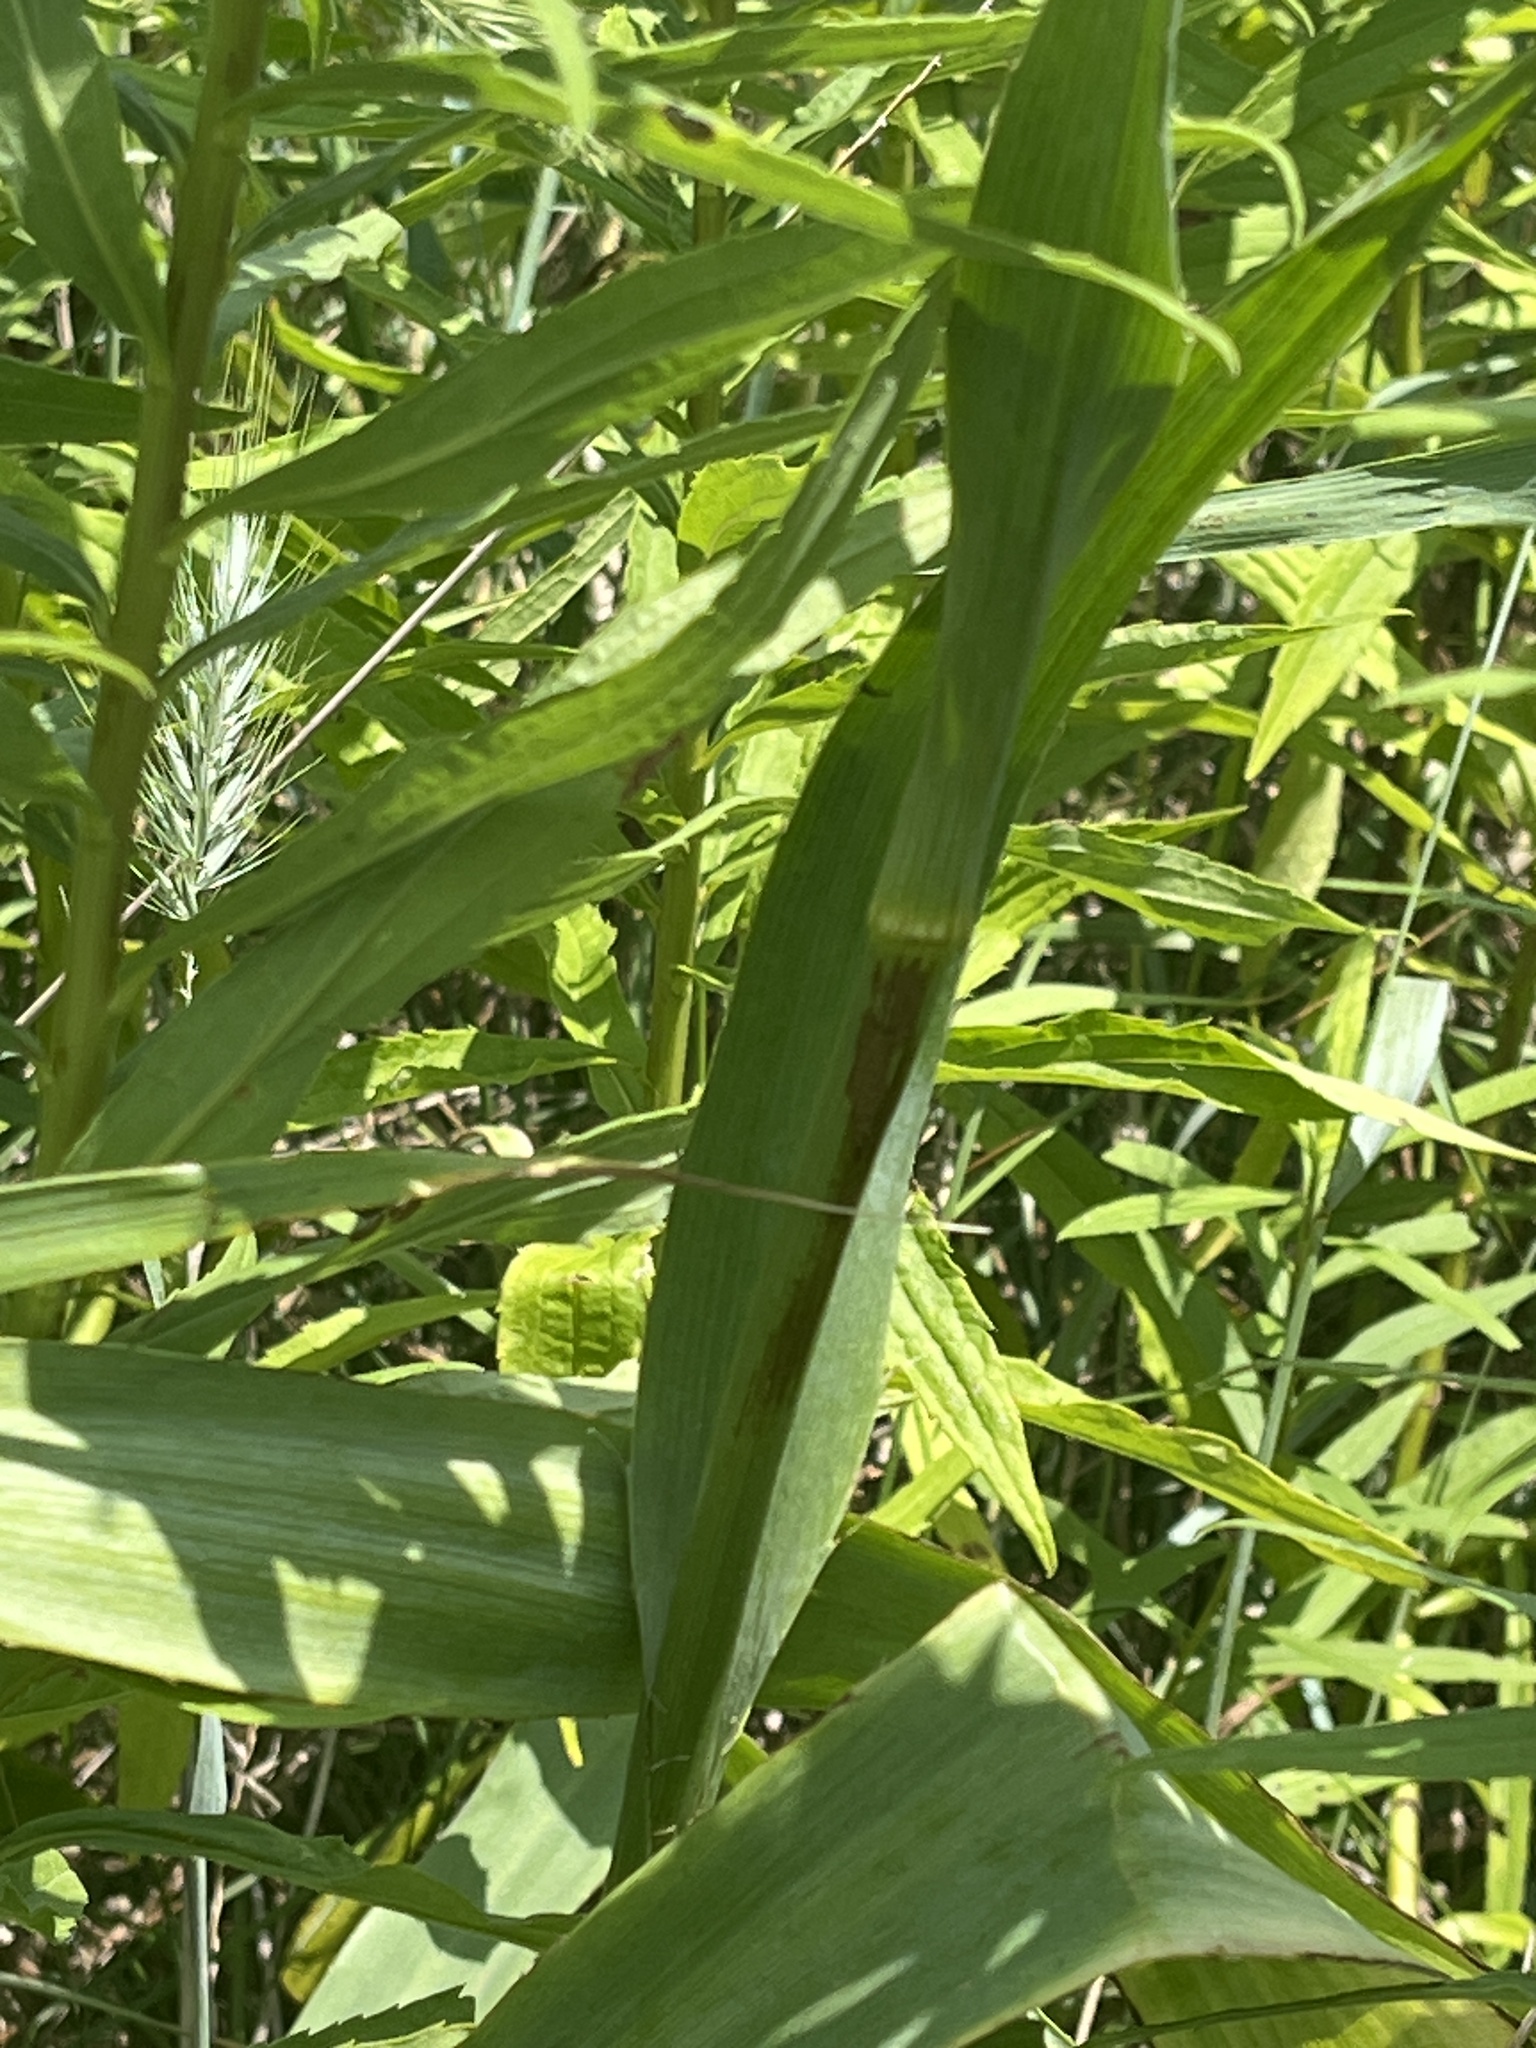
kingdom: Plantae
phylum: Tracheophyta
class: Magnoliopsida
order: Apiales
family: Apiaceae
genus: Eryngium
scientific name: Eryngium yuccifolium
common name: Button eryngo
